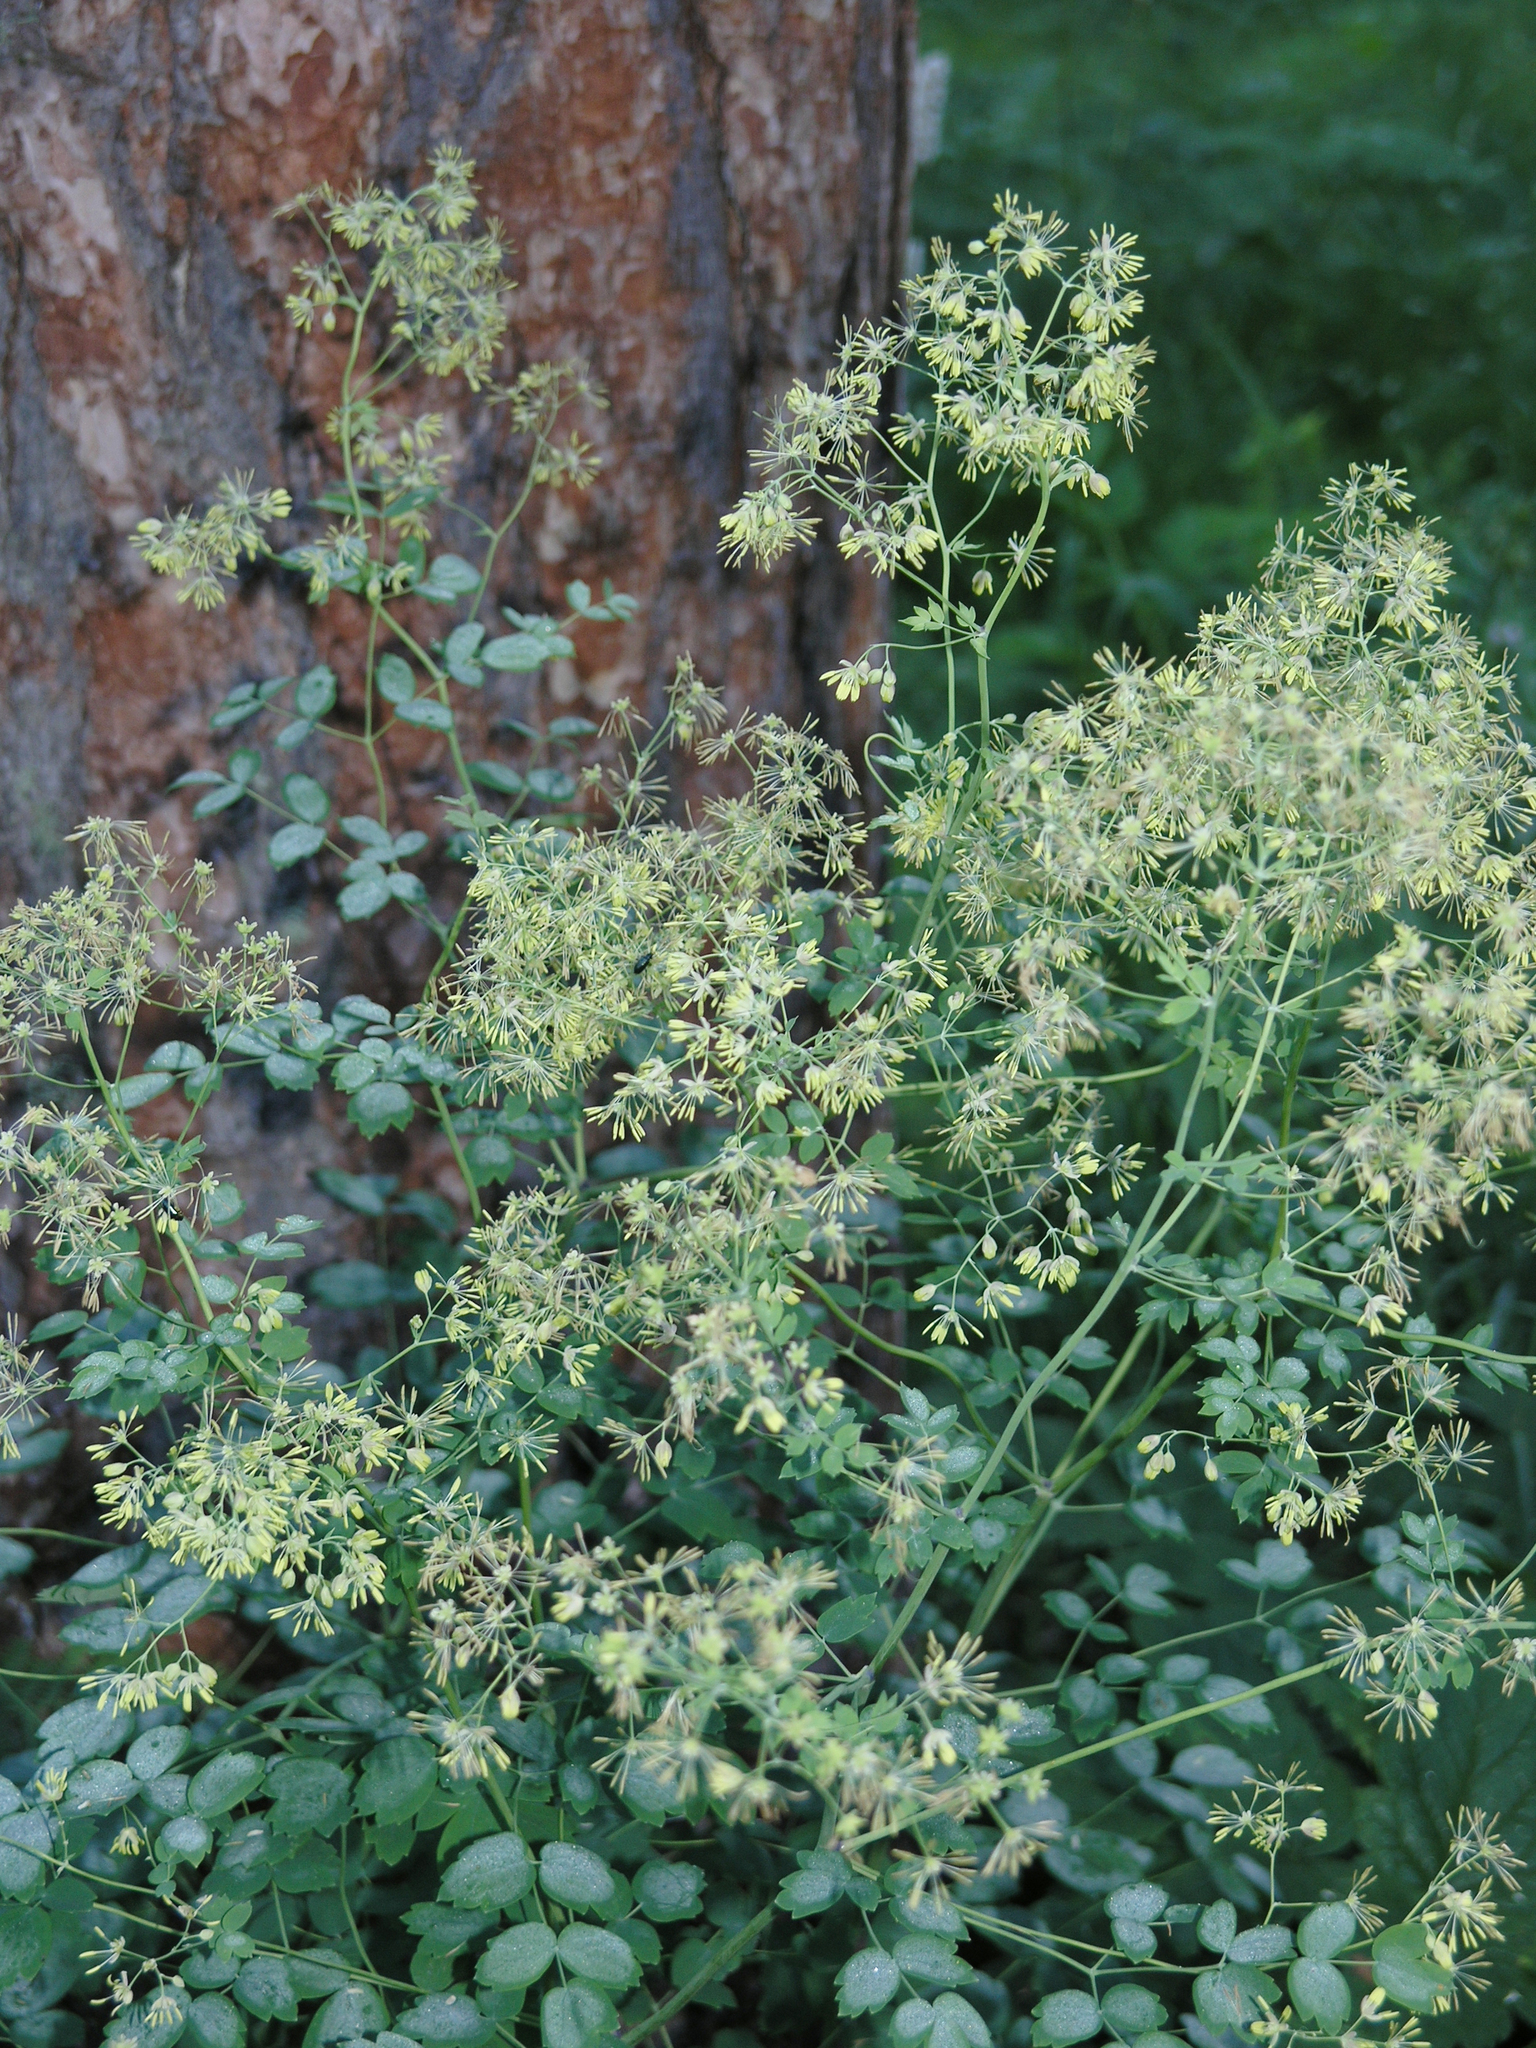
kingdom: Plantae
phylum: Tracheophyta
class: Magnoliopsida
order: Ranunculales
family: Ranunculaceae
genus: Thalictrum
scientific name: Thalictrum minus
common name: Lesser meadow-rue
